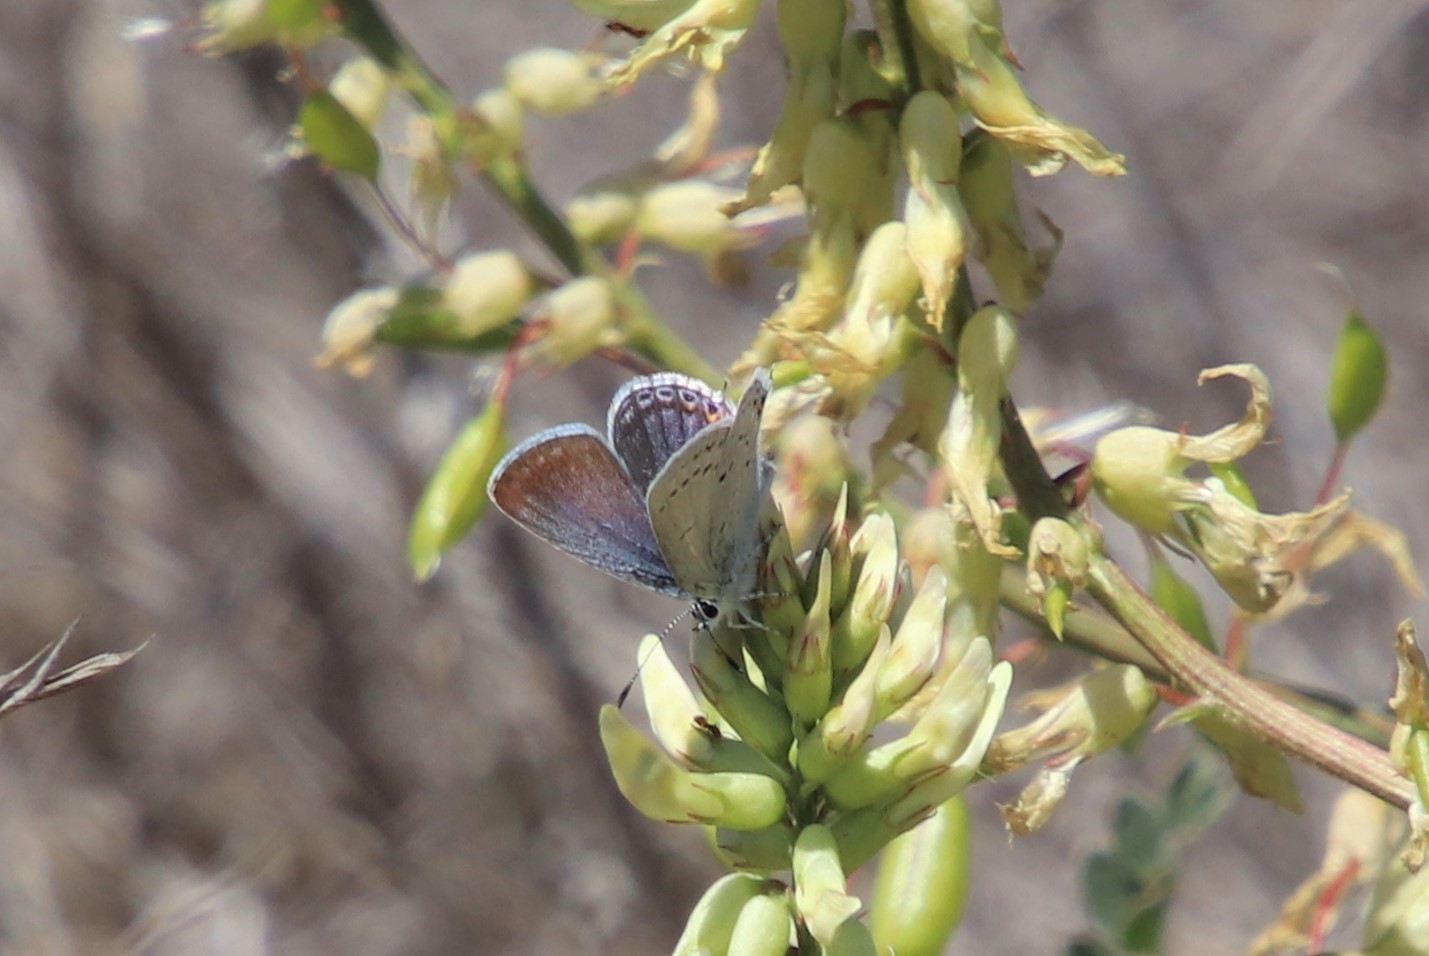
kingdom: Animalia
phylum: Arthropoda
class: Insecta
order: Lepidoptera
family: Lycaenidae
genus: Elkalyce
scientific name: Elkalyce amyntula
